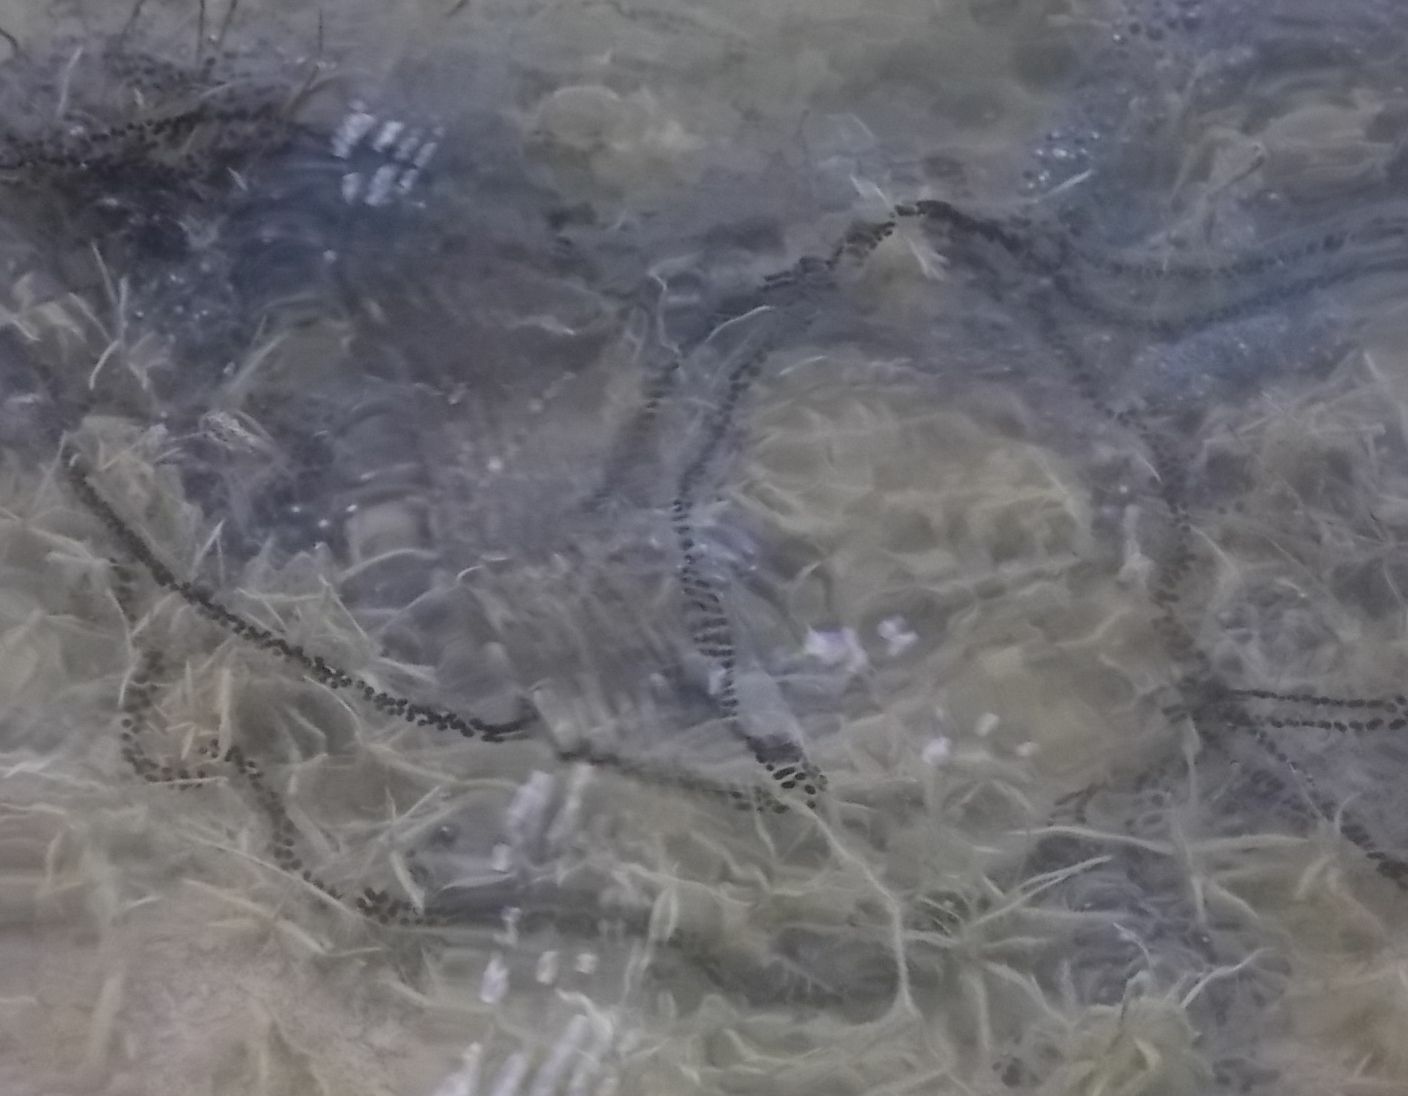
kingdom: Animalia
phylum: Chordata
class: Amphibia
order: Anura
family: Bufonidae
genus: Bufo
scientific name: Bufo bufo
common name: Common toad
